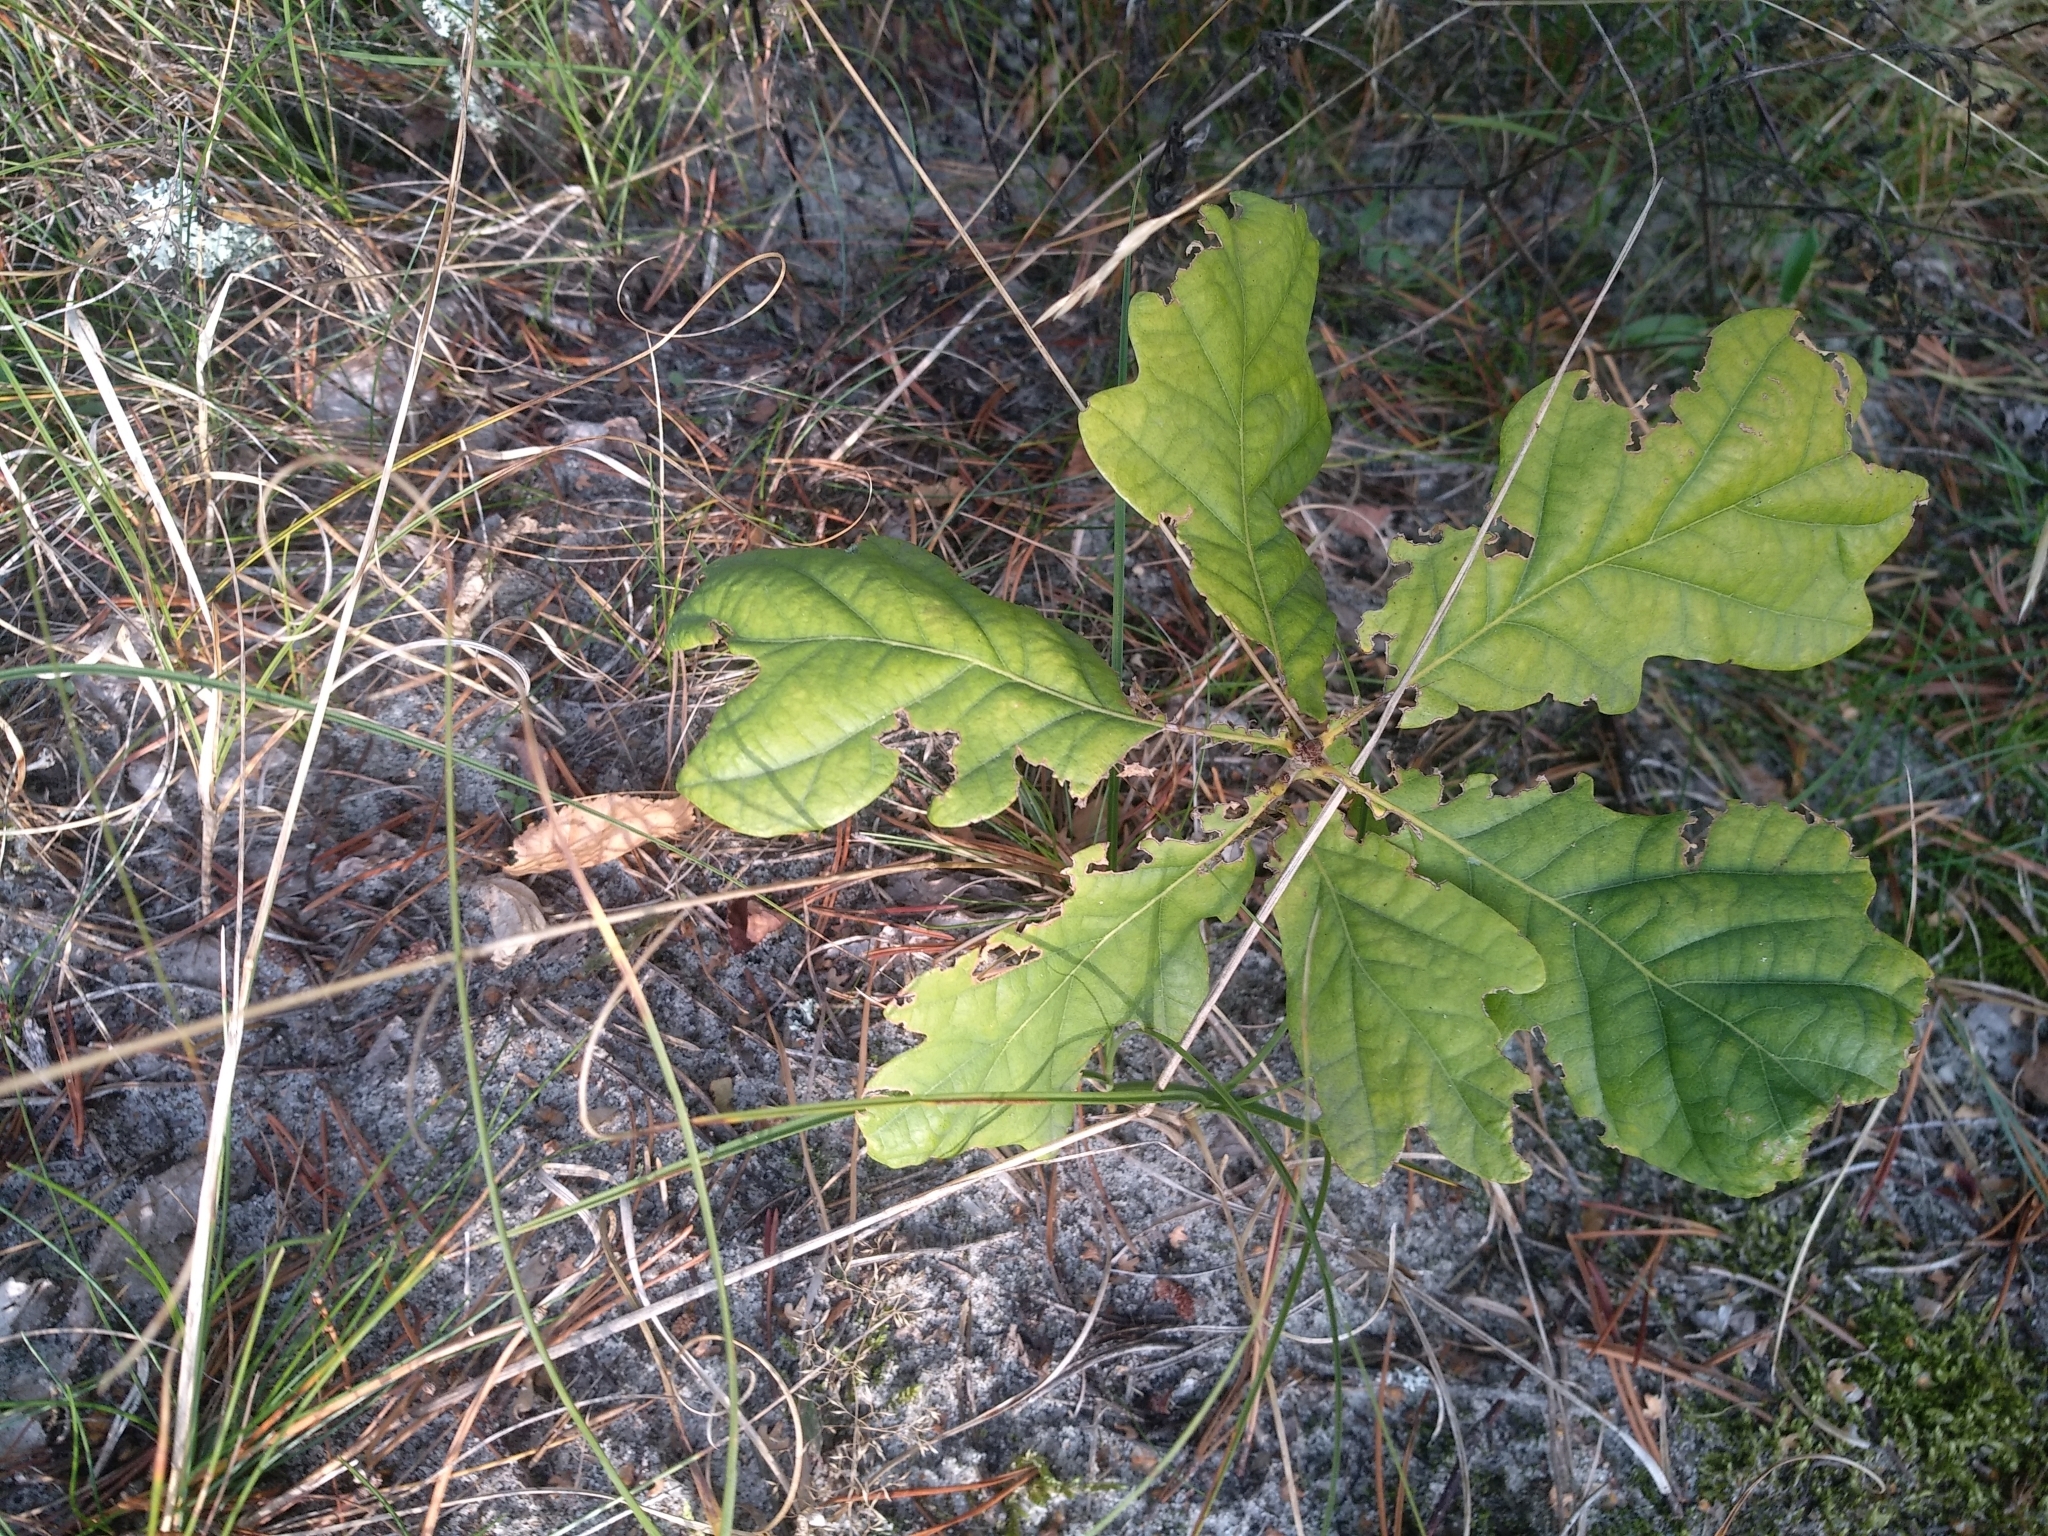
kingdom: Plantae
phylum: Tracheophyta
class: Magnoliopsida
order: Fagales
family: Fagaceae
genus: Quercus
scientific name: Quercus robur
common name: Pedunculate oak
